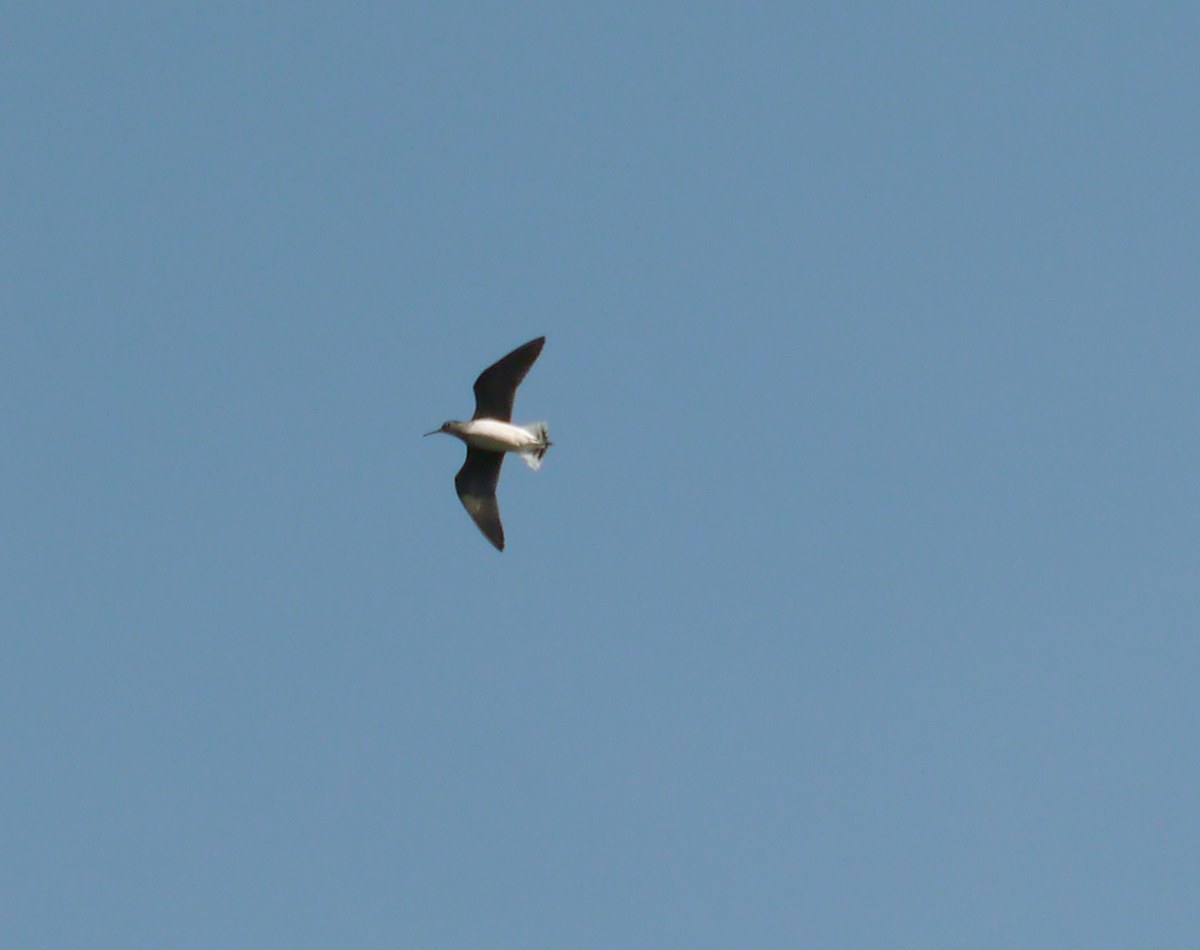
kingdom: Animalia
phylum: Chordata
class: Aves
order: Charadriiformes
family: Scolopacidae
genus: Tringa
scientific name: Tringa ochropus
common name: Green sandpiper
